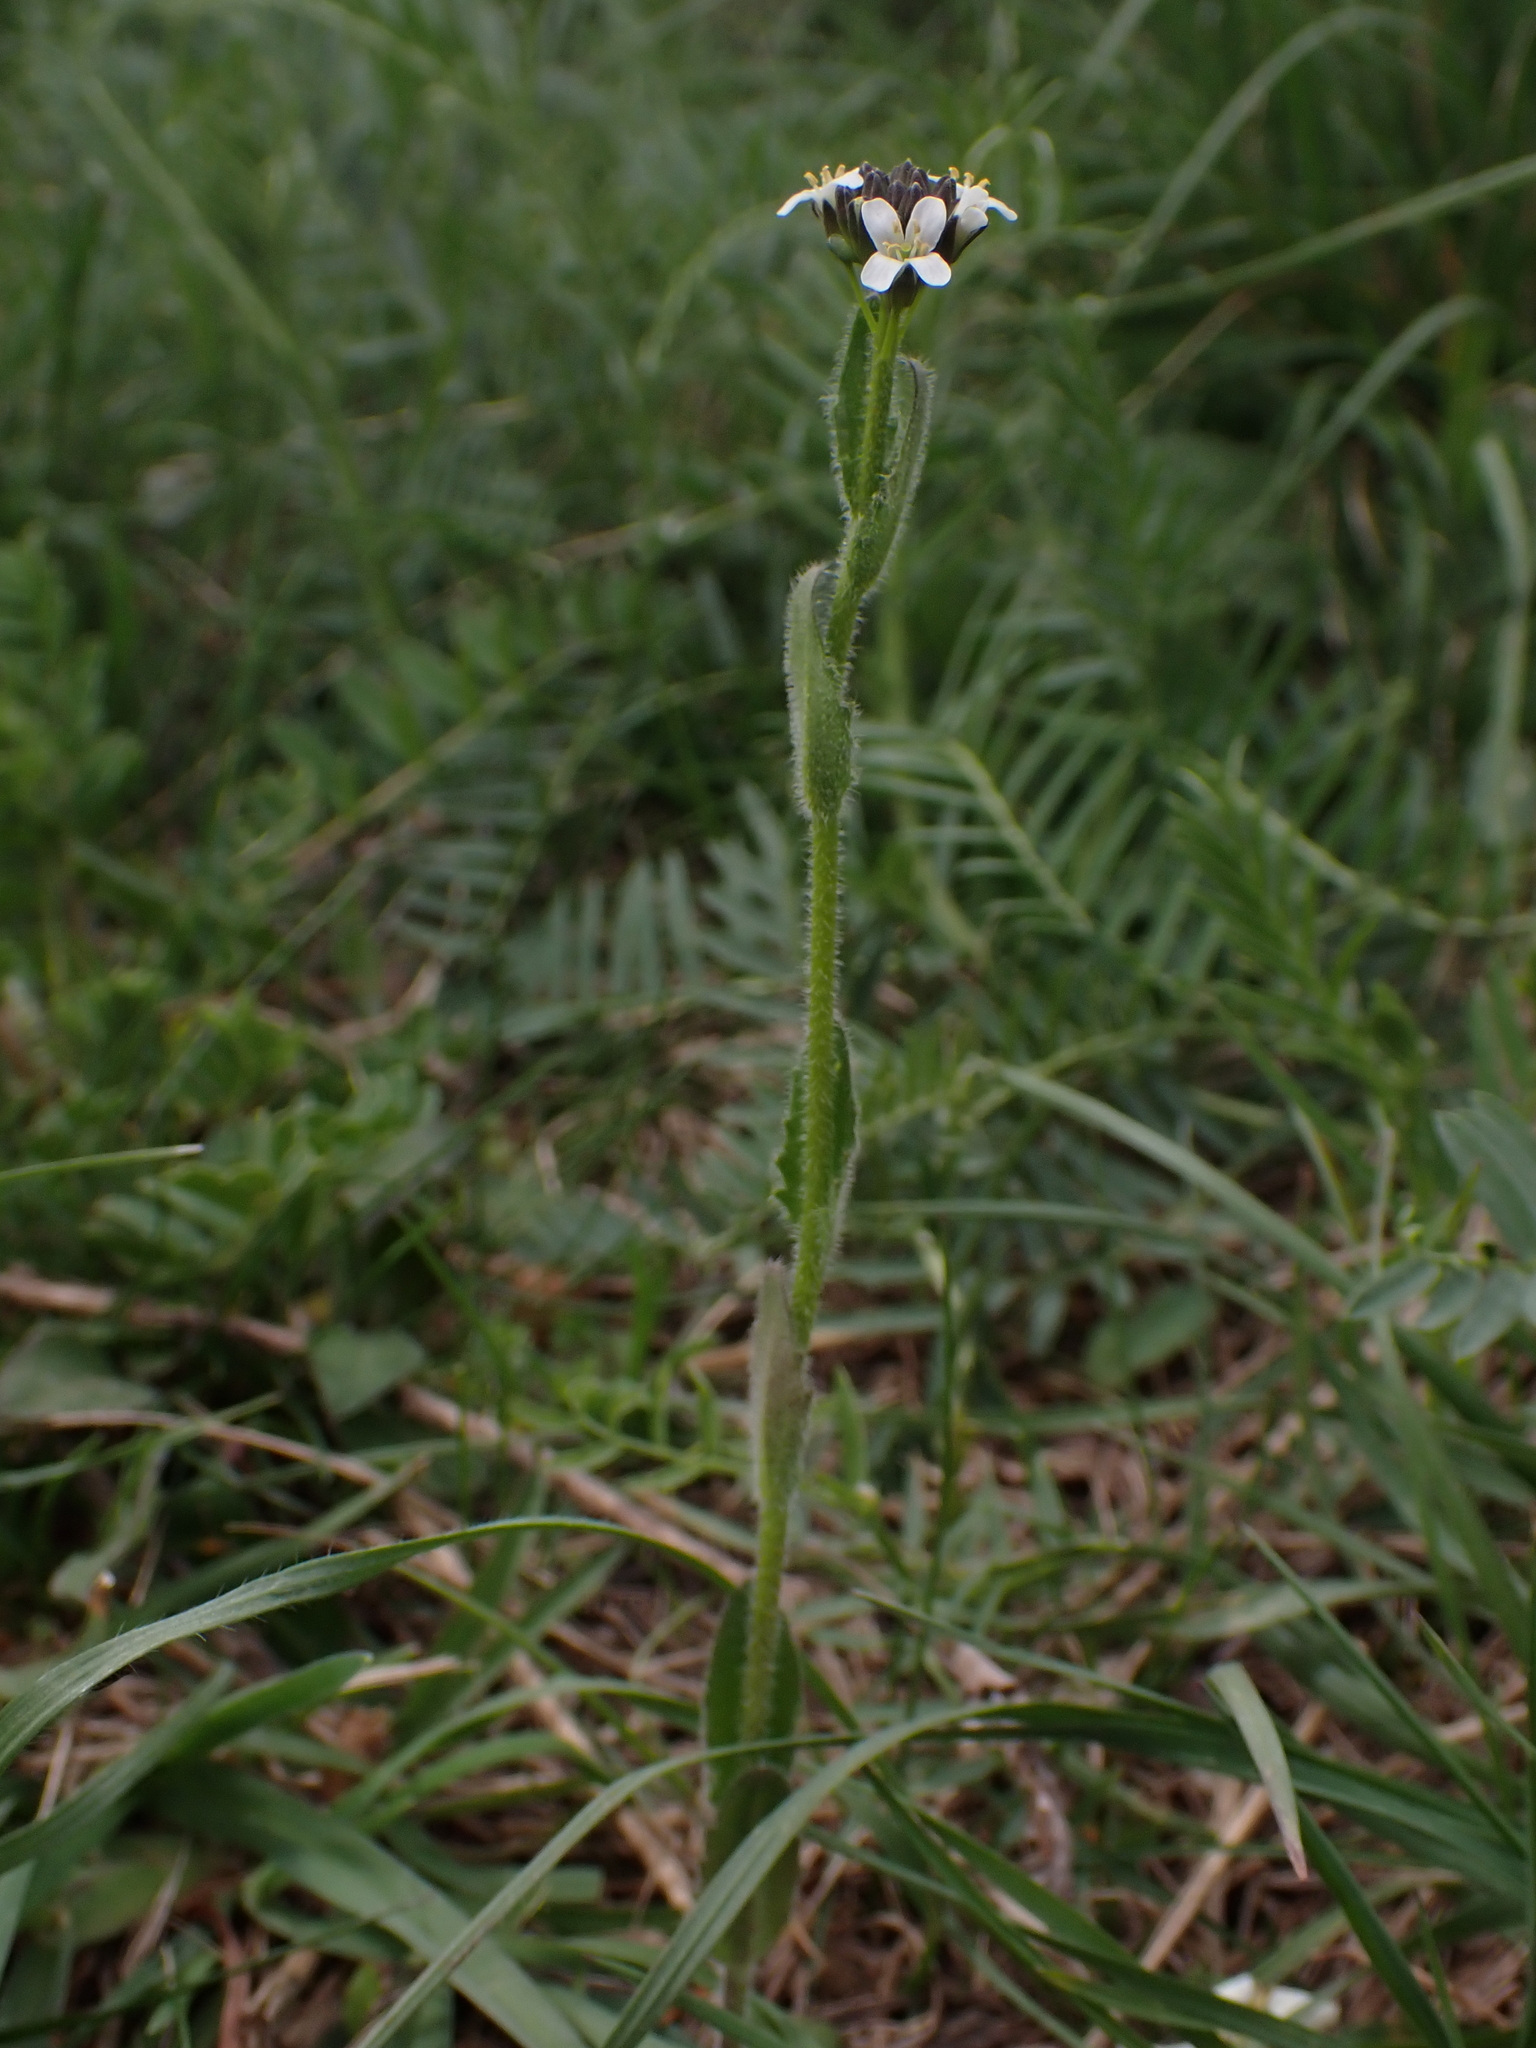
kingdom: Plantae
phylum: Tracheophyta
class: Magnoliopsida
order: Brassicales
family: Brassicaceae
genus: Arabis
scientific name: Arabis hirsuta
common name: Hairy rock-cress
